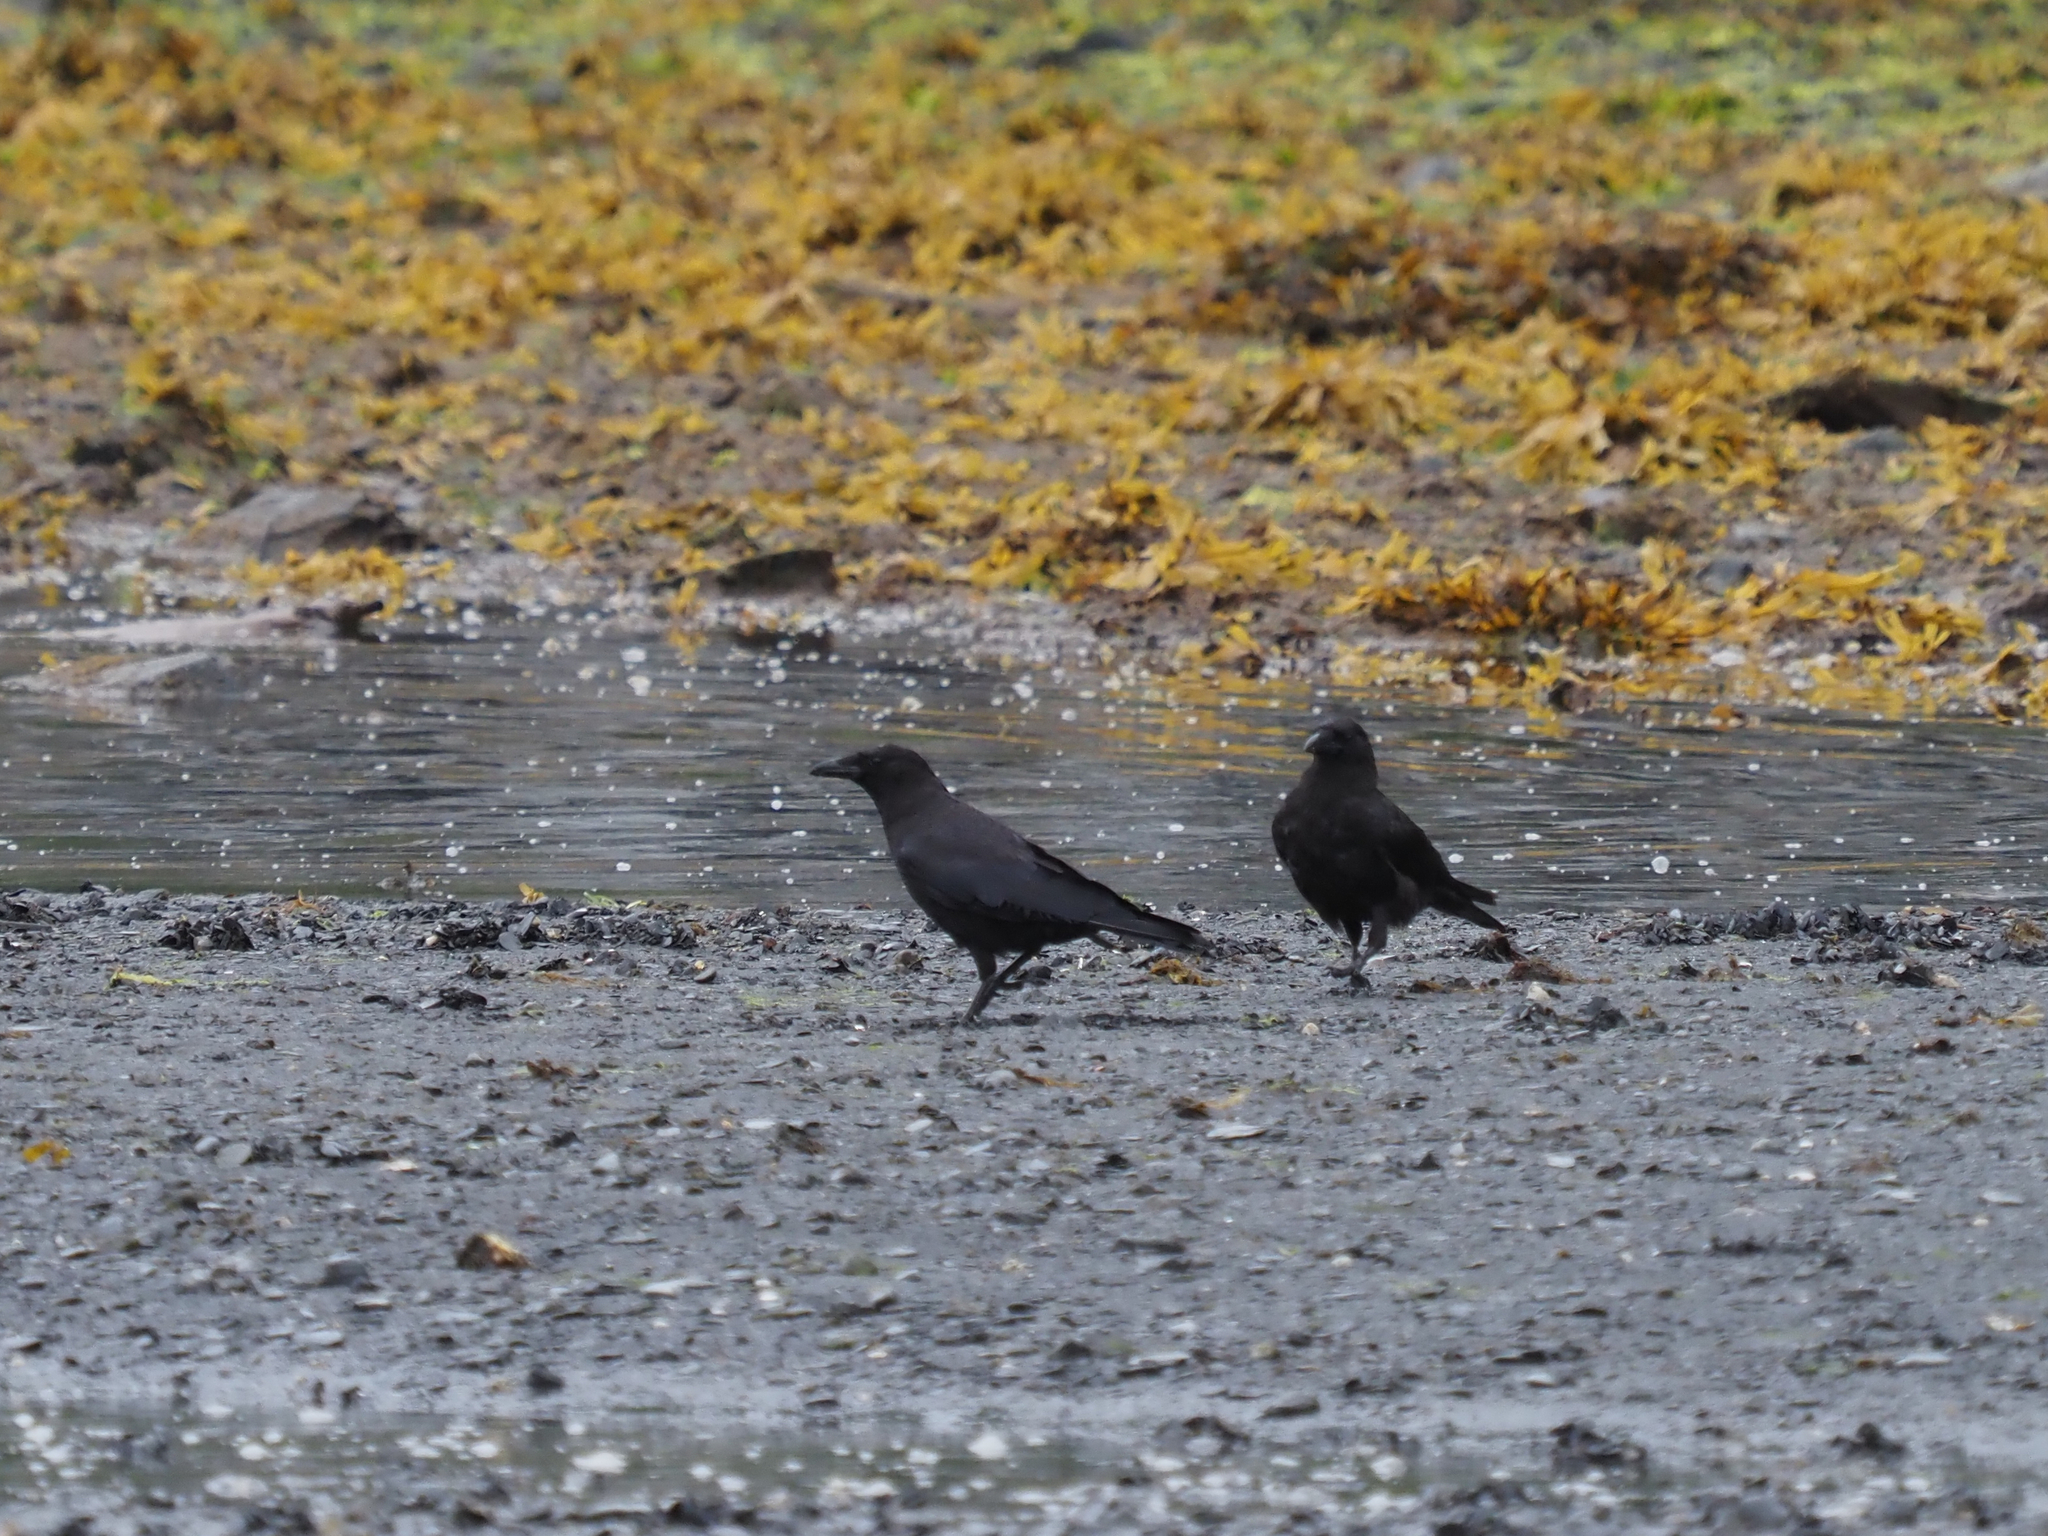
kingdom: Animalia
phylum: Chordata
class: Aves
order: Passeriformes
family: Corvidae
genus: Corvus
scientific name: Corvus brachyrhynchos
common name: American crow
